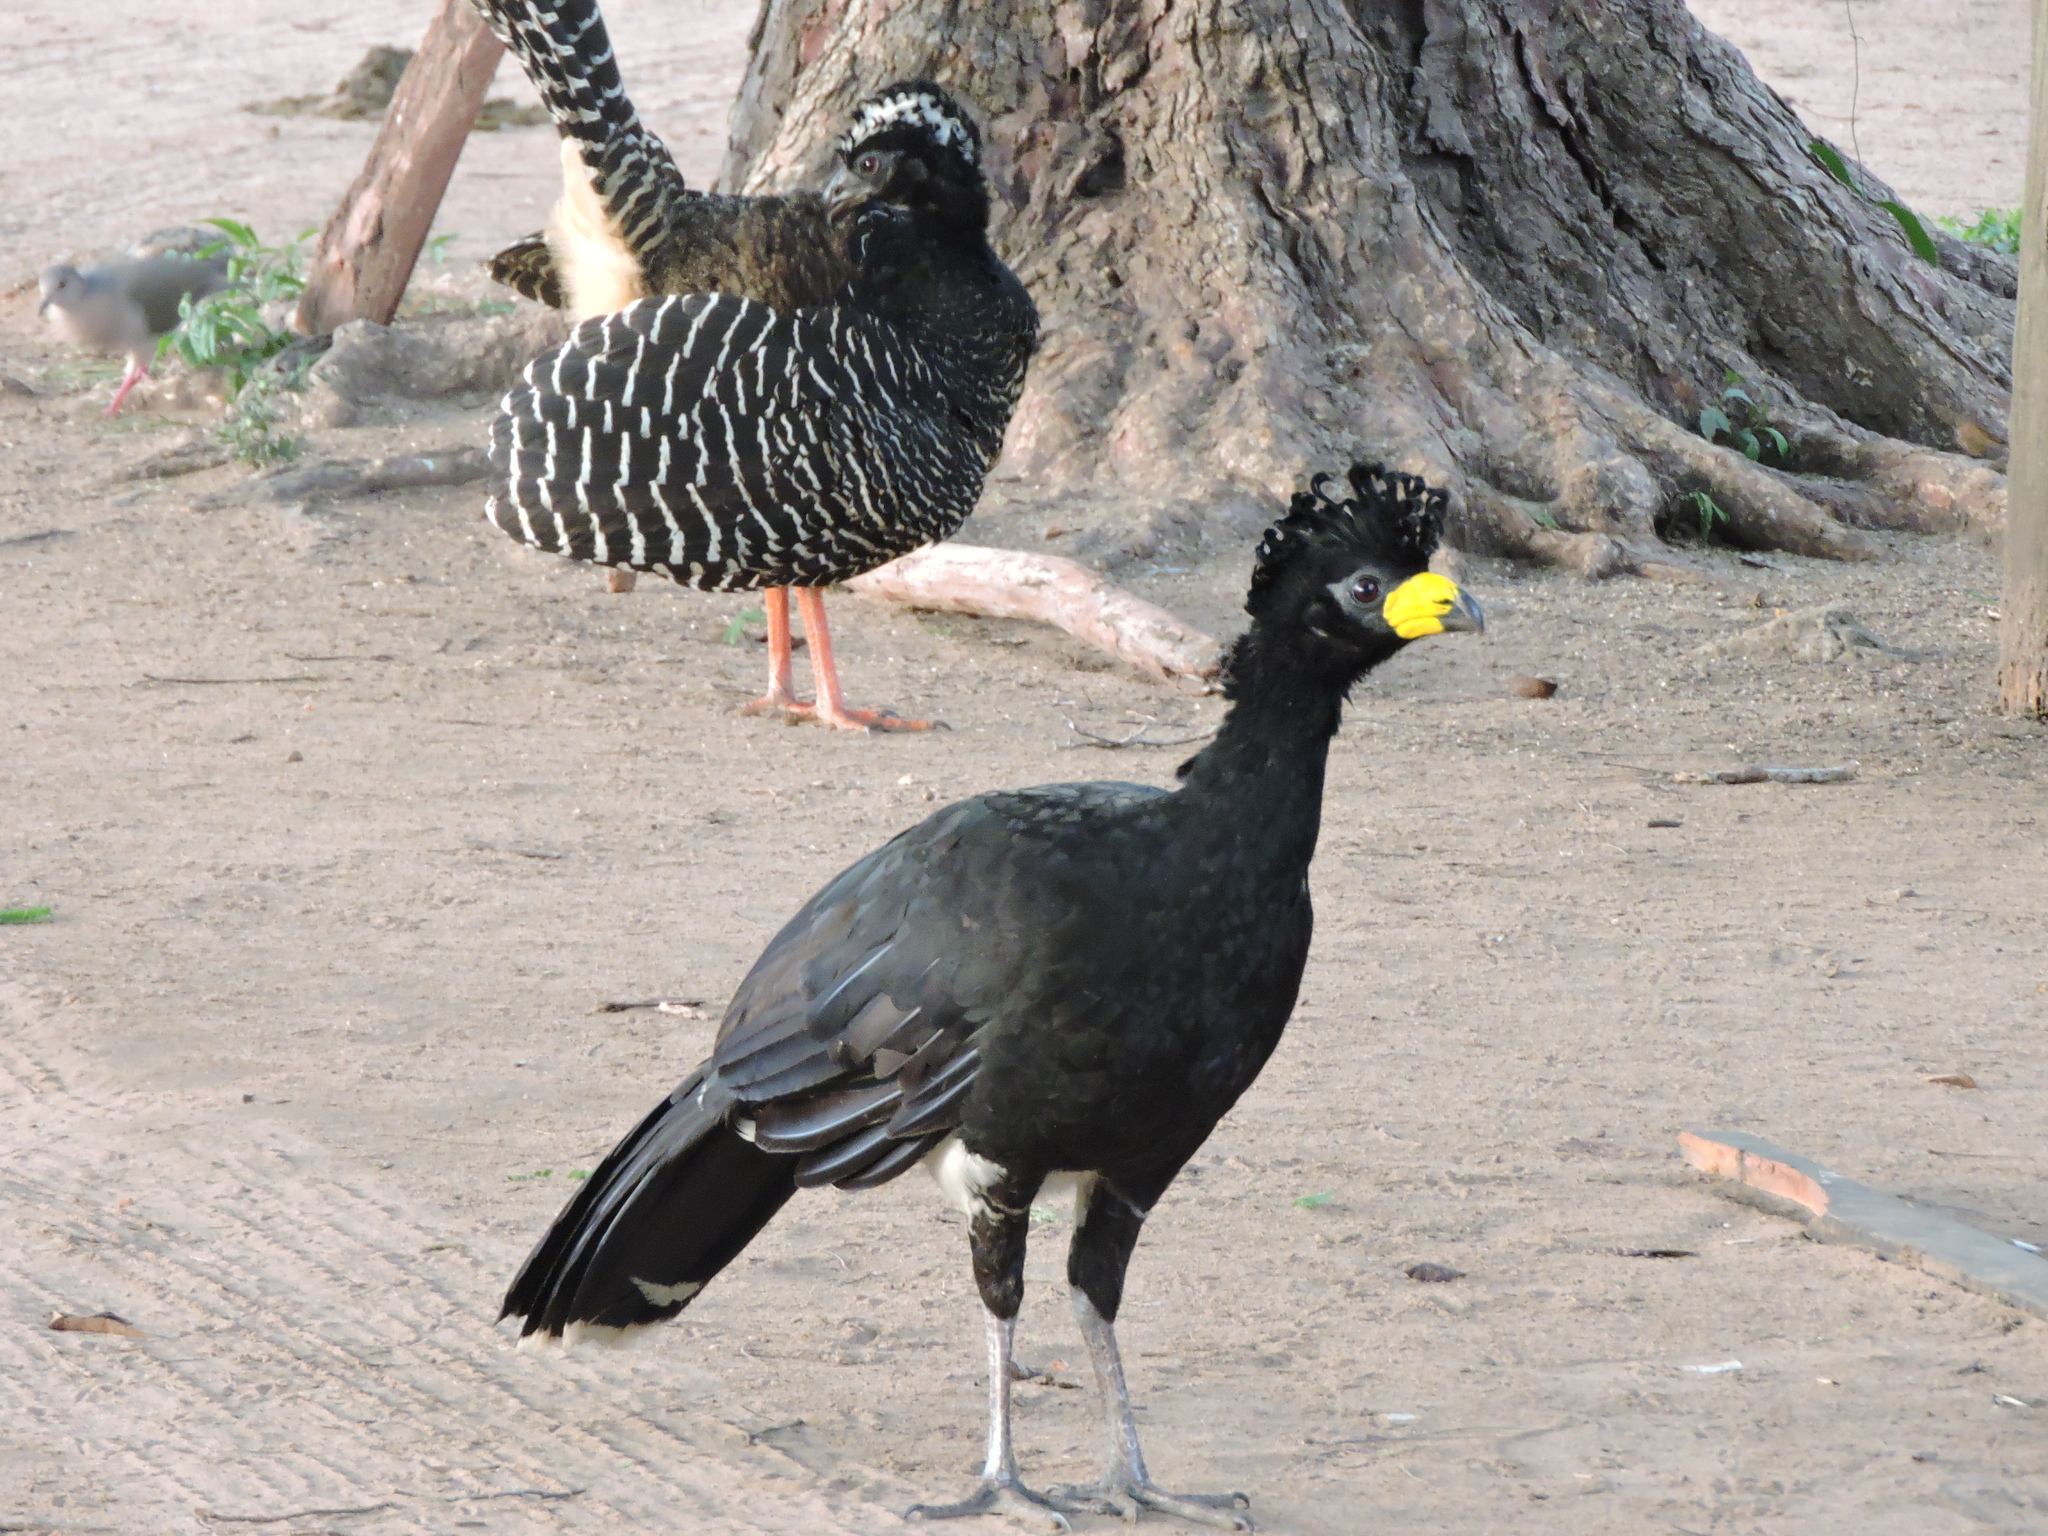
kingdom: Animalia
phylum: Chordata
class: Aves
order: Galliformes
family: Cracidae
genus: Crax
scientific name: Crax fasciolata
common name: Bare-faced curassow
